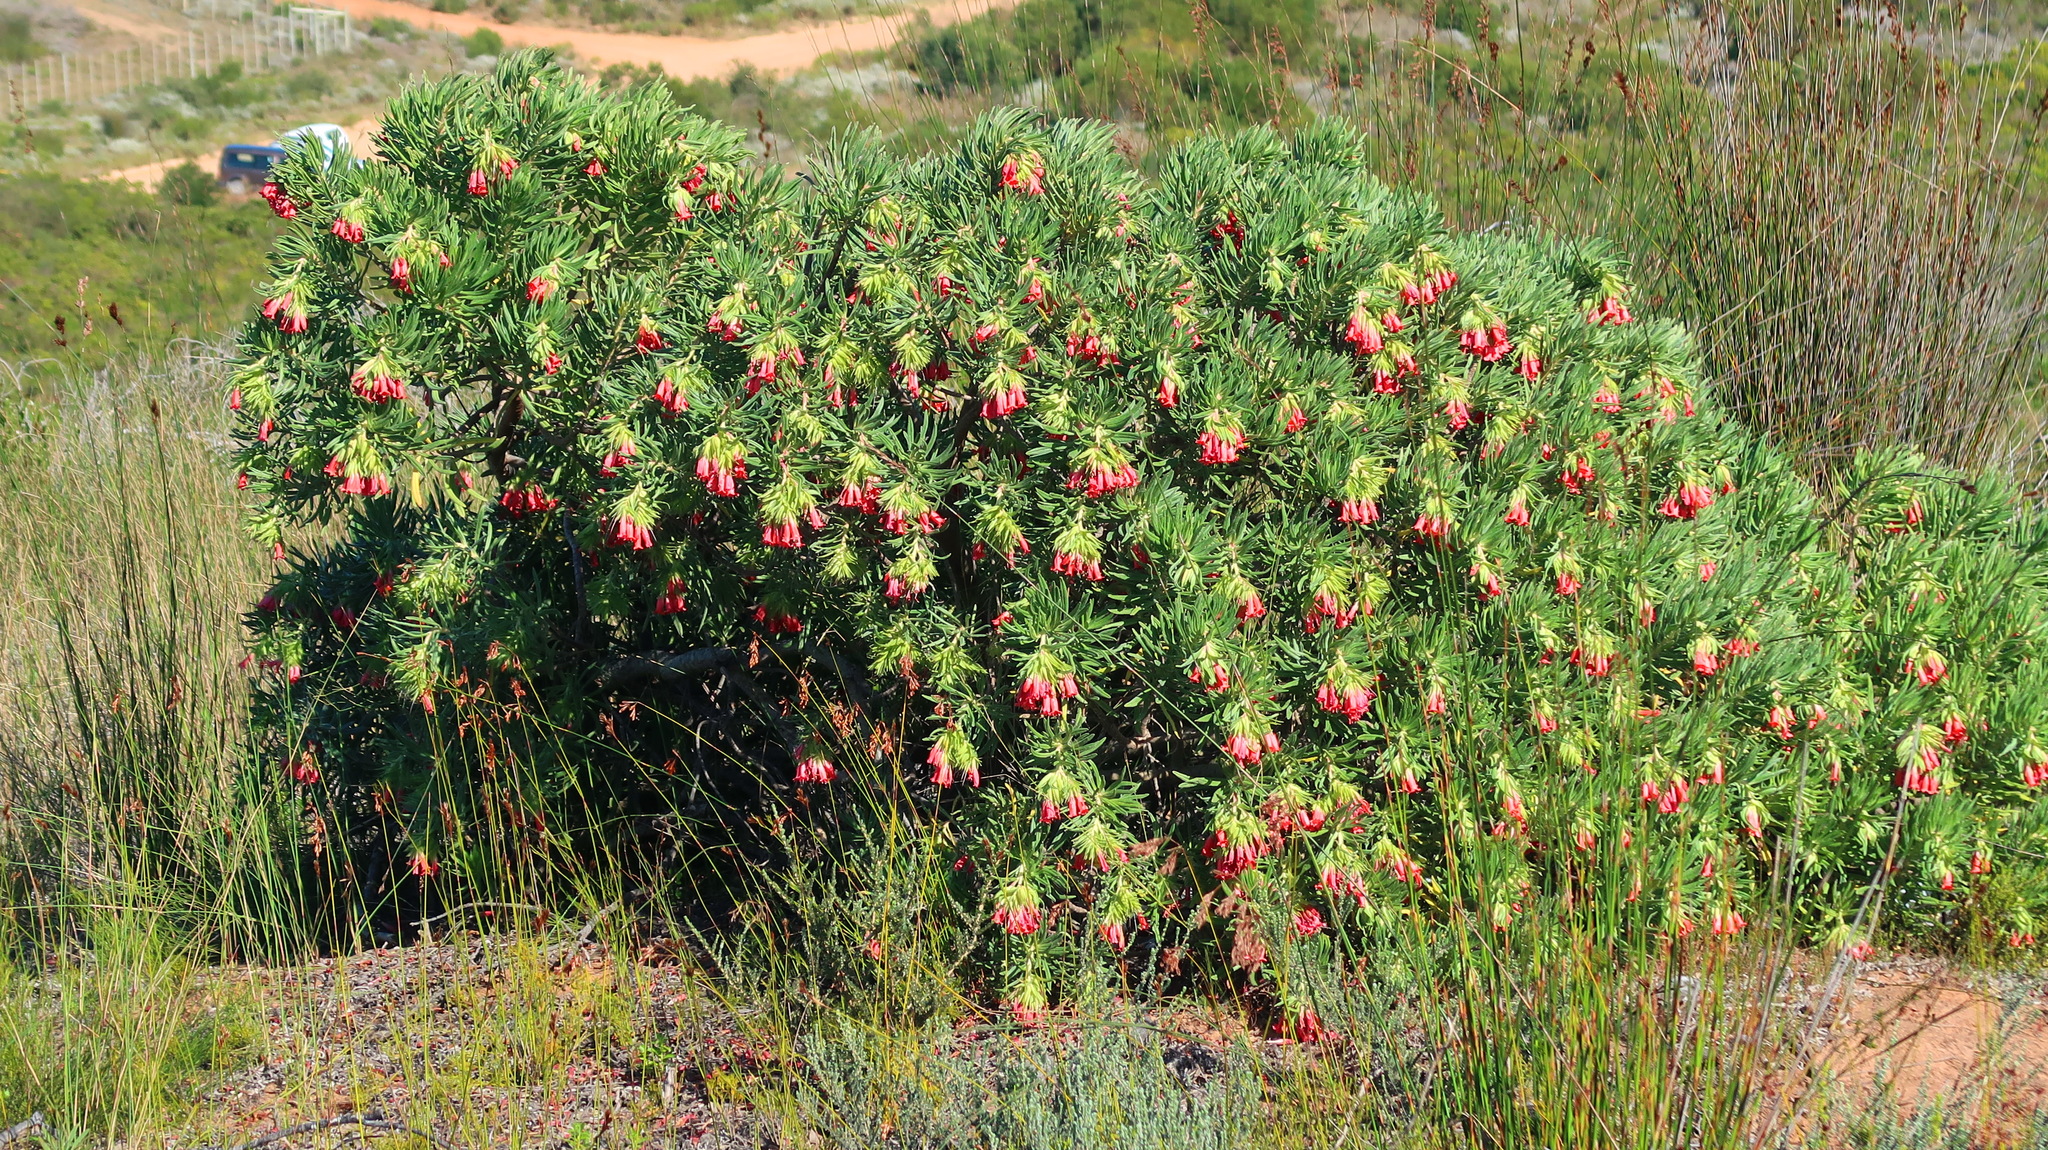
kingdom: Plantae
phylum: Tracheophyta
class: Magnoliopsida
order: Boraginales
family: Boraginaceae
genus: Lobostemon
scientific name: Lobostemon belliformis
